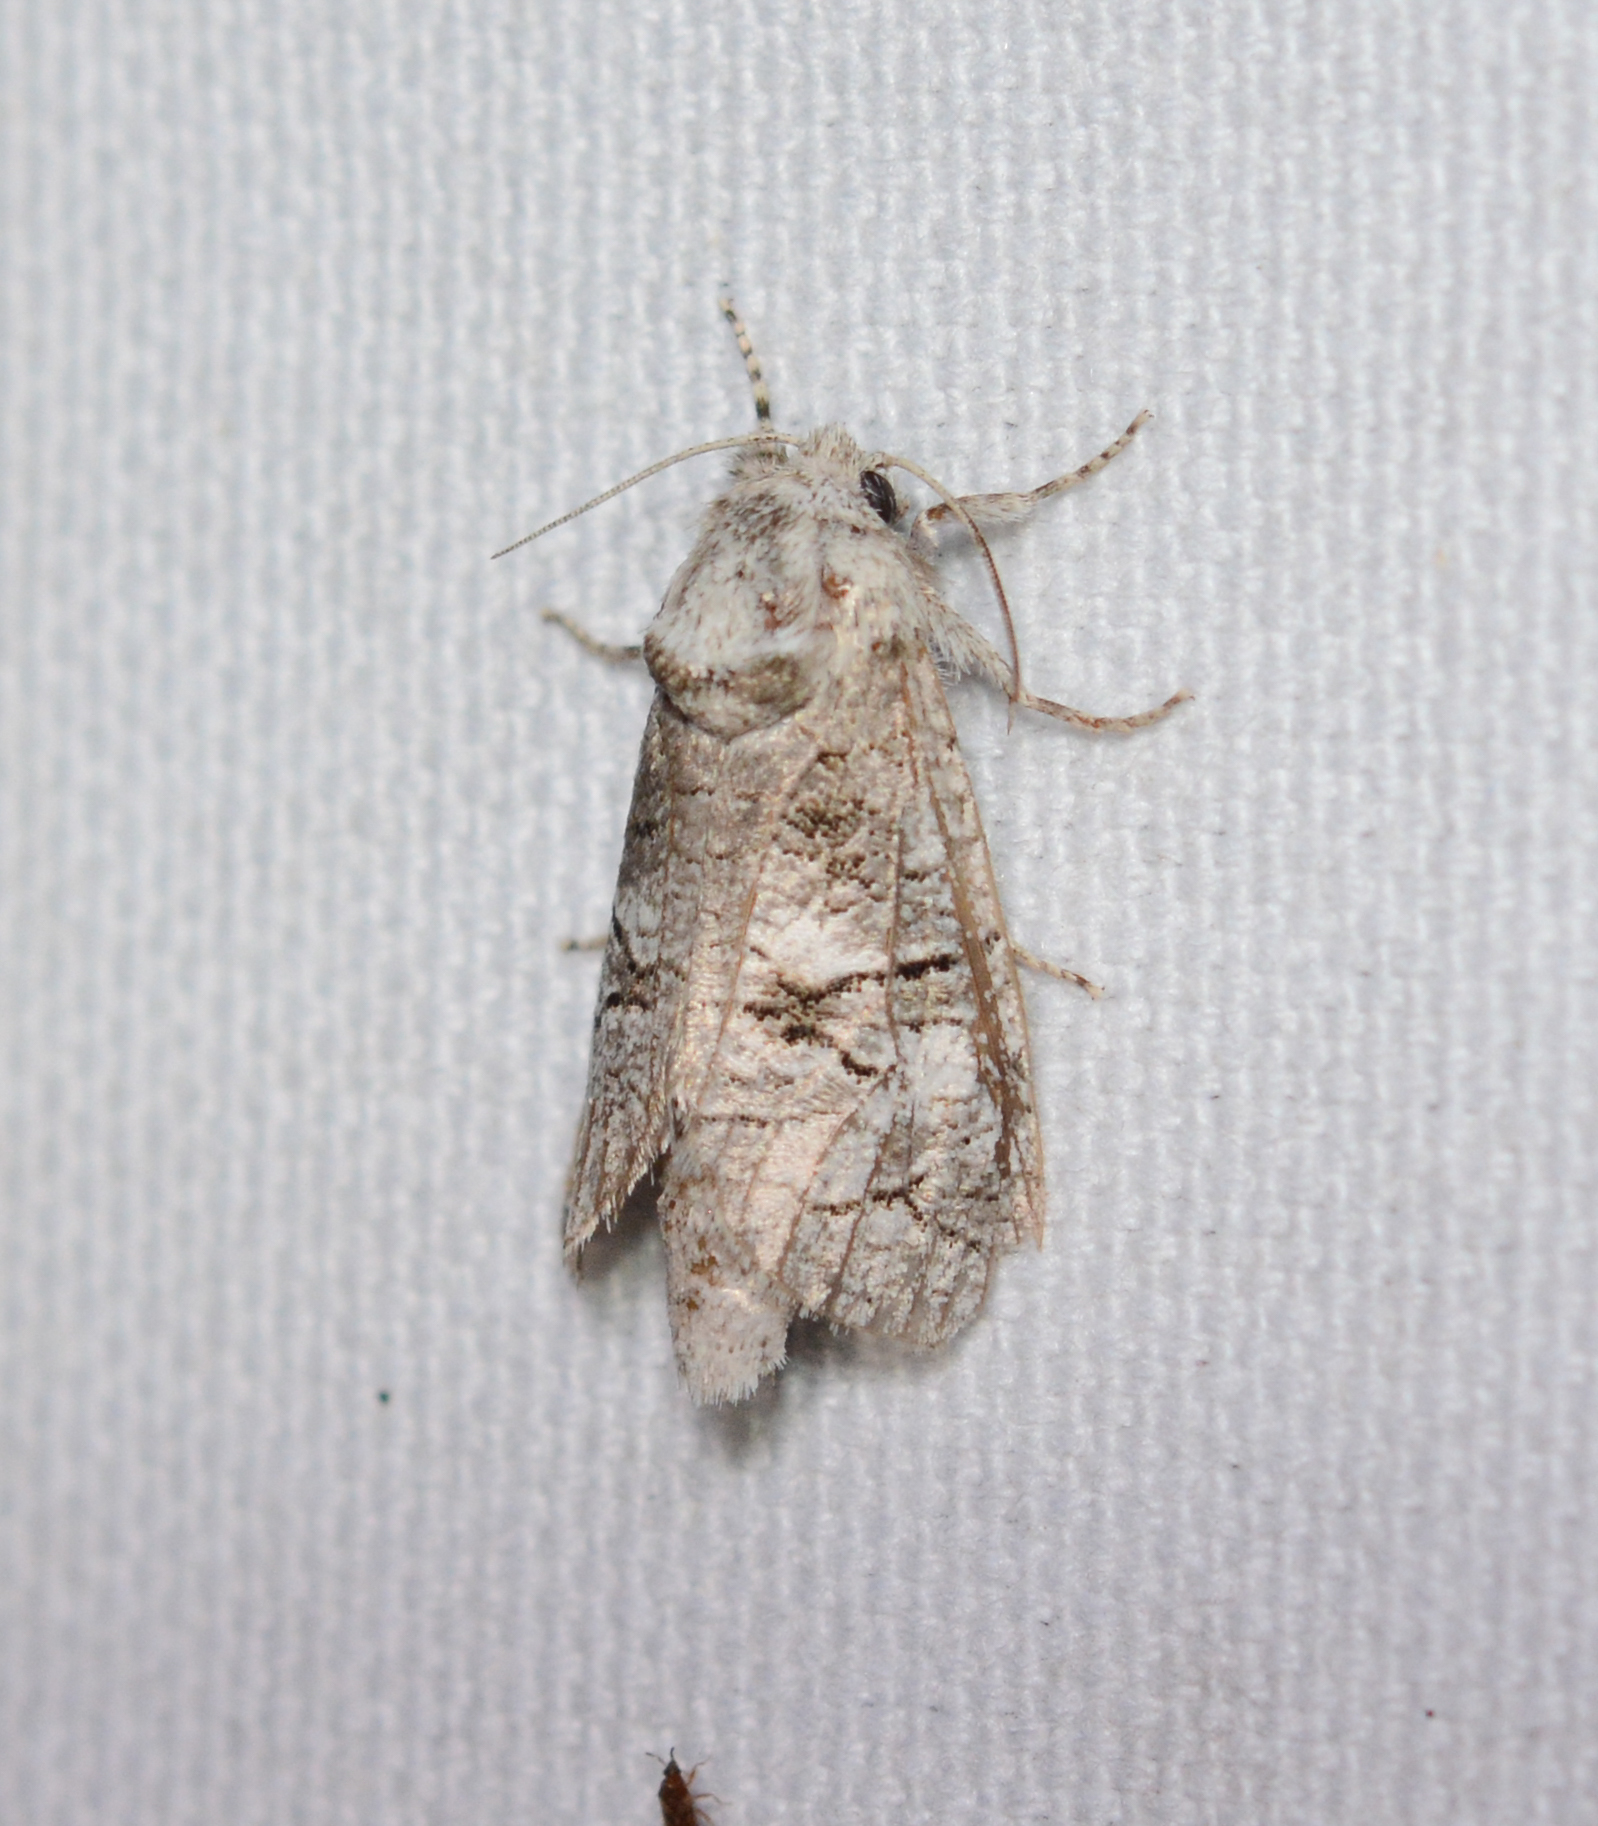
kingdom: Animalia
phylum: Arthropoda
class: Insecta
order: Lepidoptera
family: Cossidae
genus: Fania
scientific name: Fania nanus
